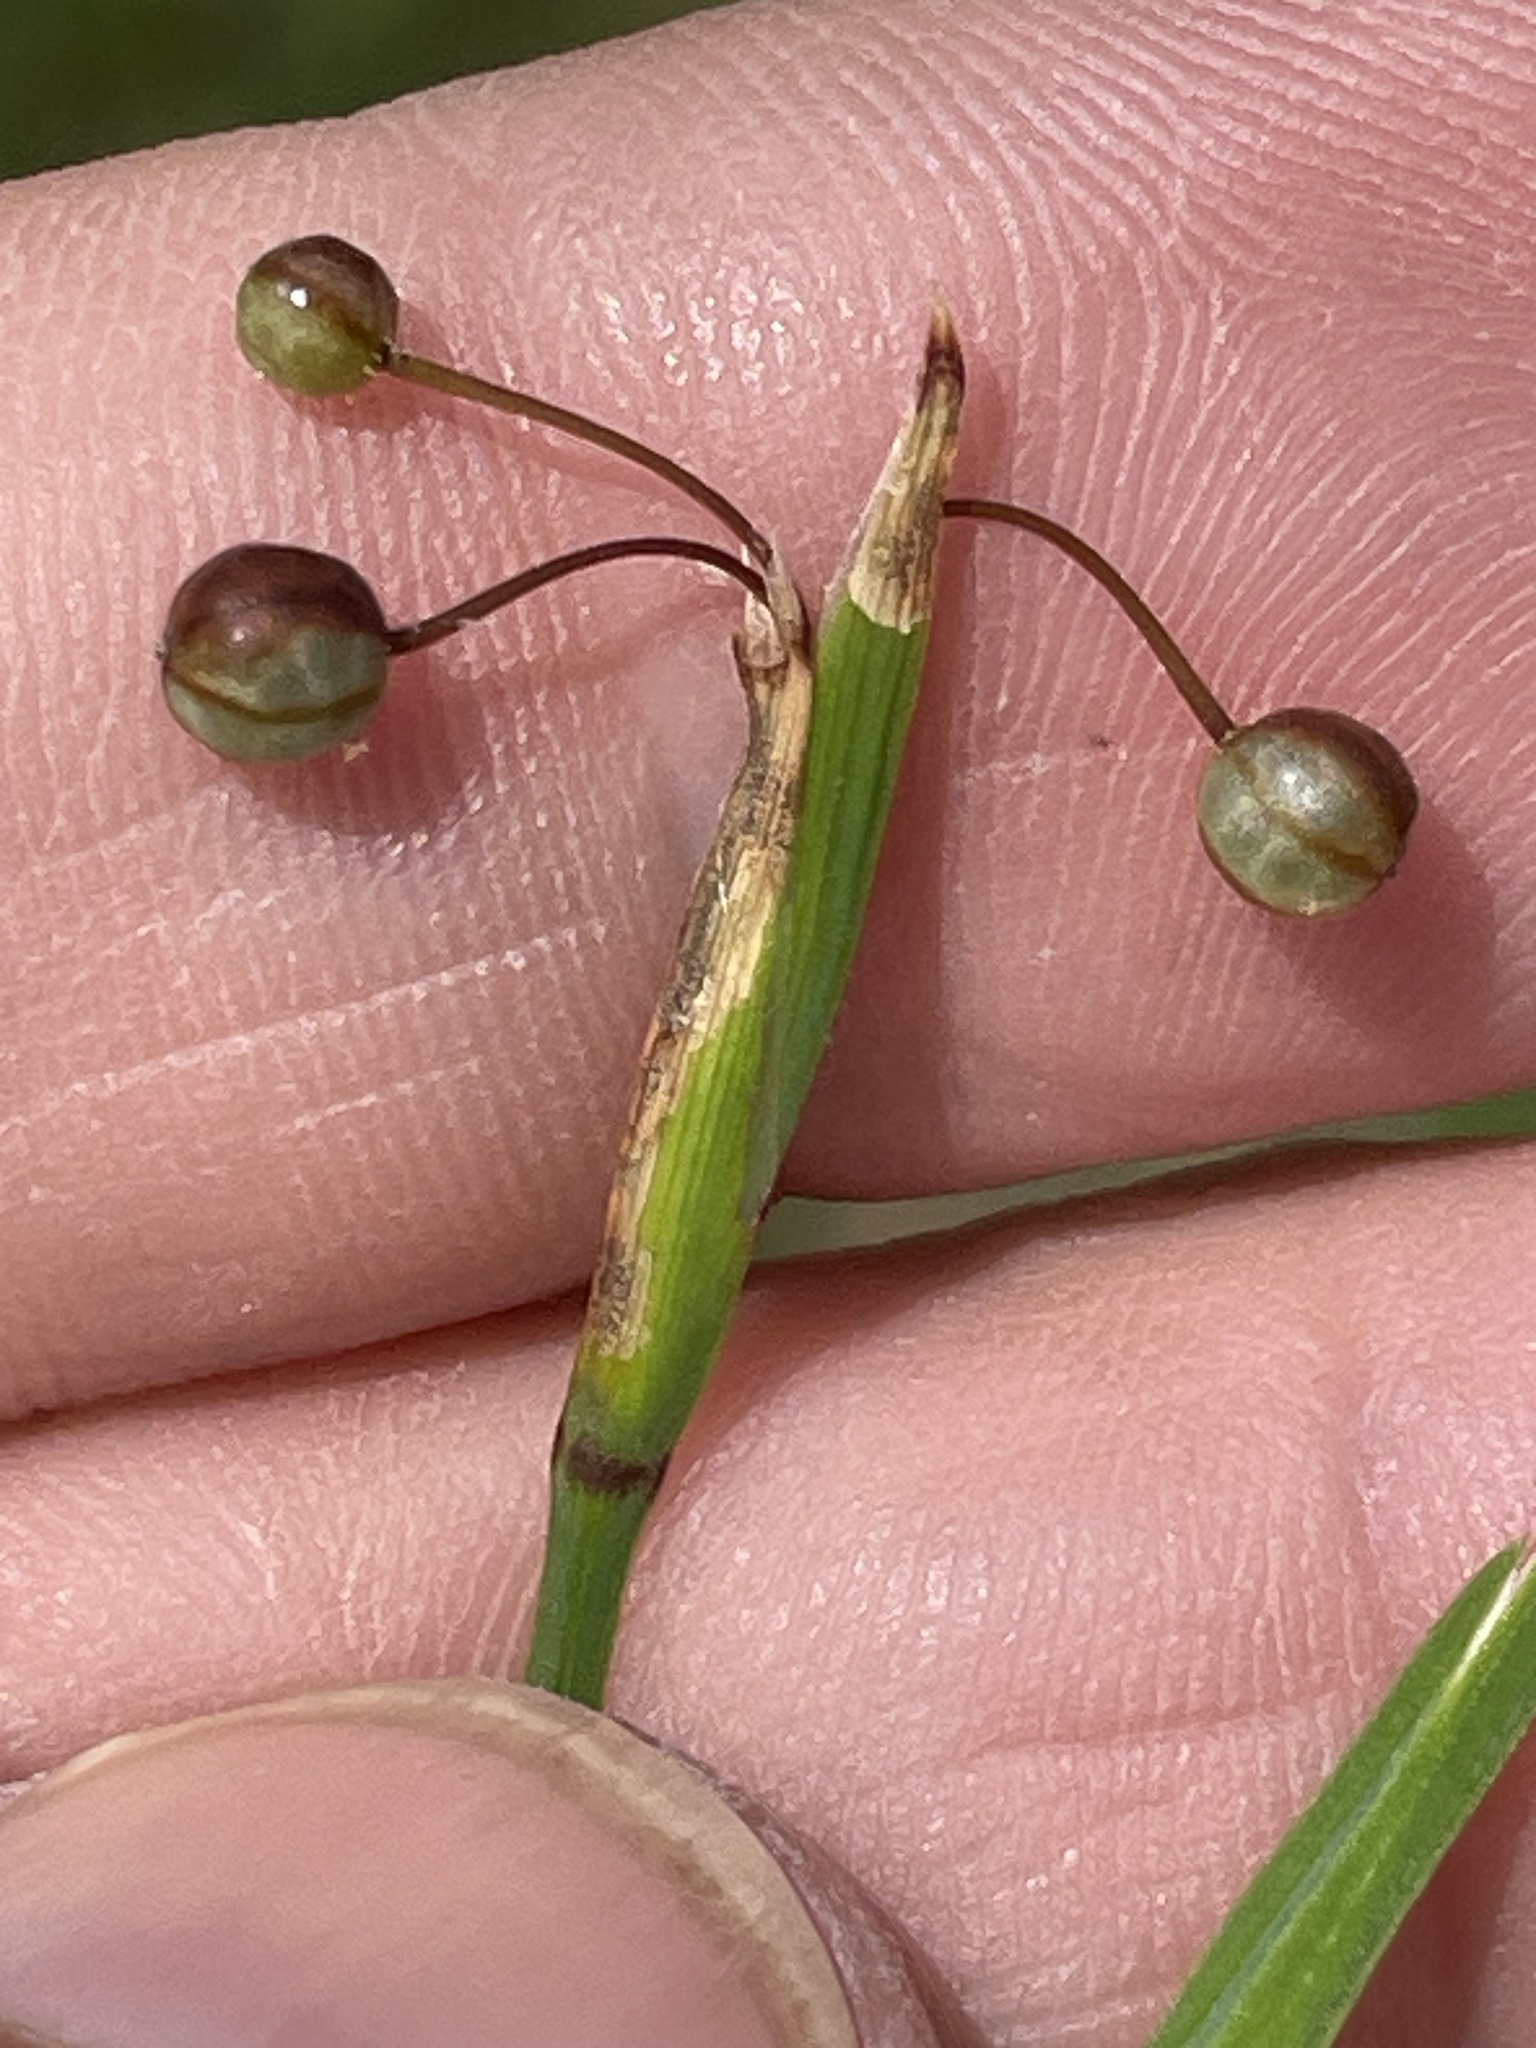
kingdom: Plantae
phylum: Tracheophyta
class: Liliopsida
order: Asparagales
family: Iridaceae
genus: Sisyrinchium
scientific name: Sisyrinchium micranthum
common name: Bermuda pigroot
